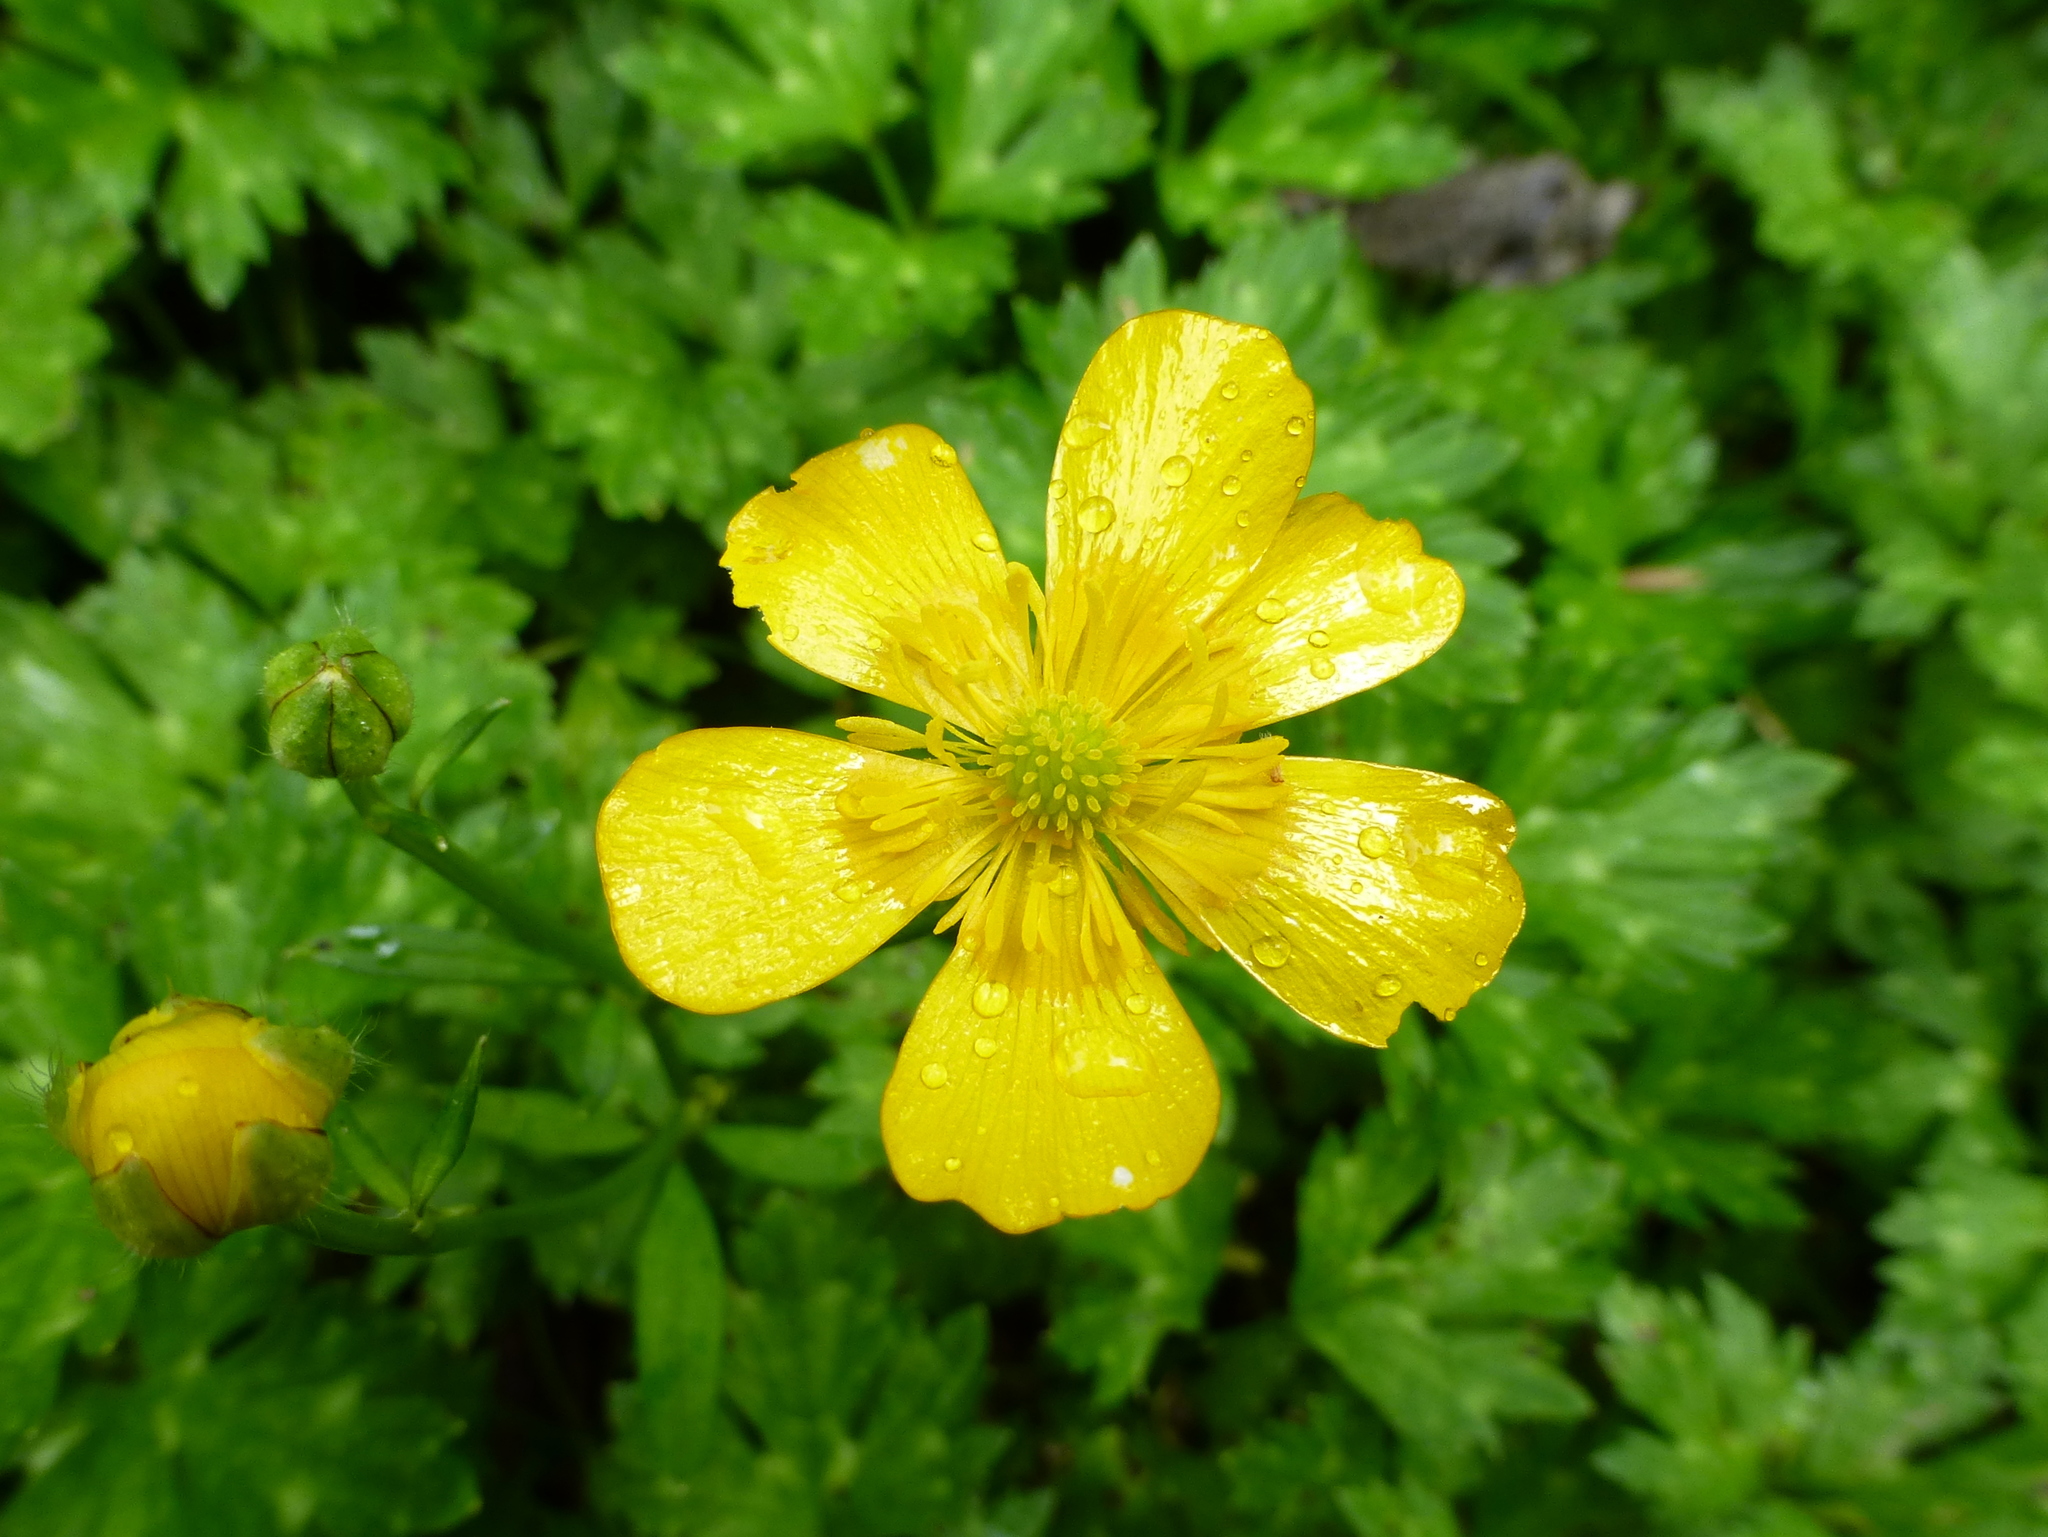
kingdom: Plantae
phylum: Tracheophyta
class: Magnoliopsida
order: Ranunculales
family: Ranunculaceae
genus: Ranunculus
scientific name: Ranunculus repens
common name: Creeping buttercup
